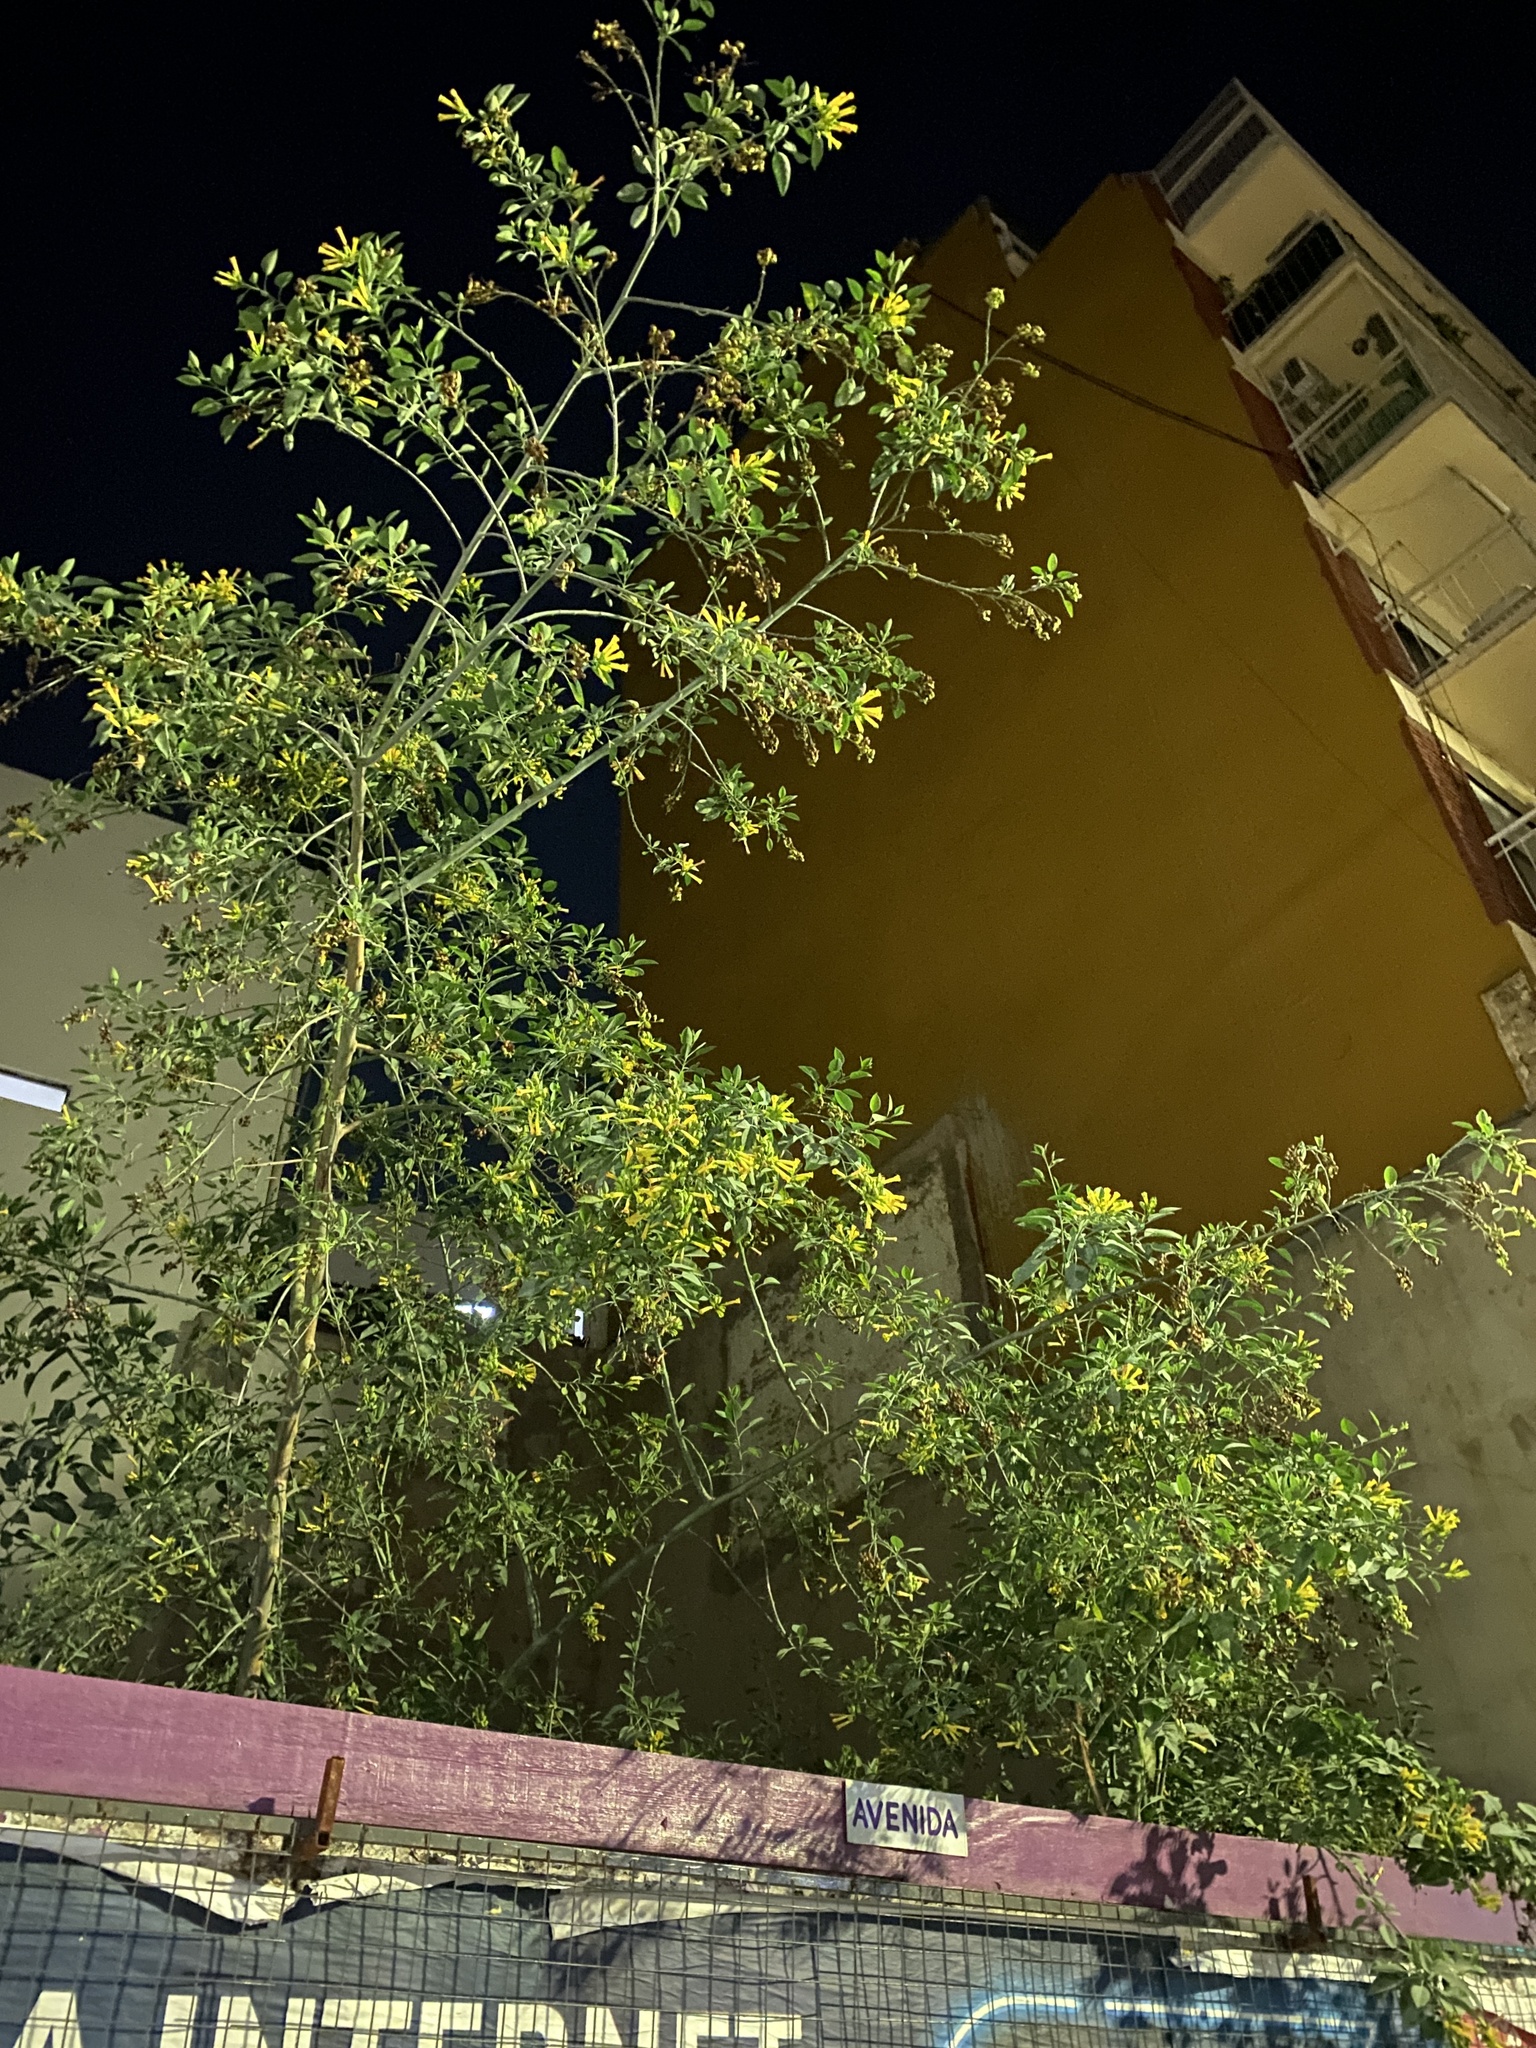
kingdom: Plantae
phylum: Tracheophyta
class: Magnoliopsida
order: Solanales
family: Solanaceae
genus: Nicotiana
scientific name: Nicotiana glauca
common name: Tree tobacco
